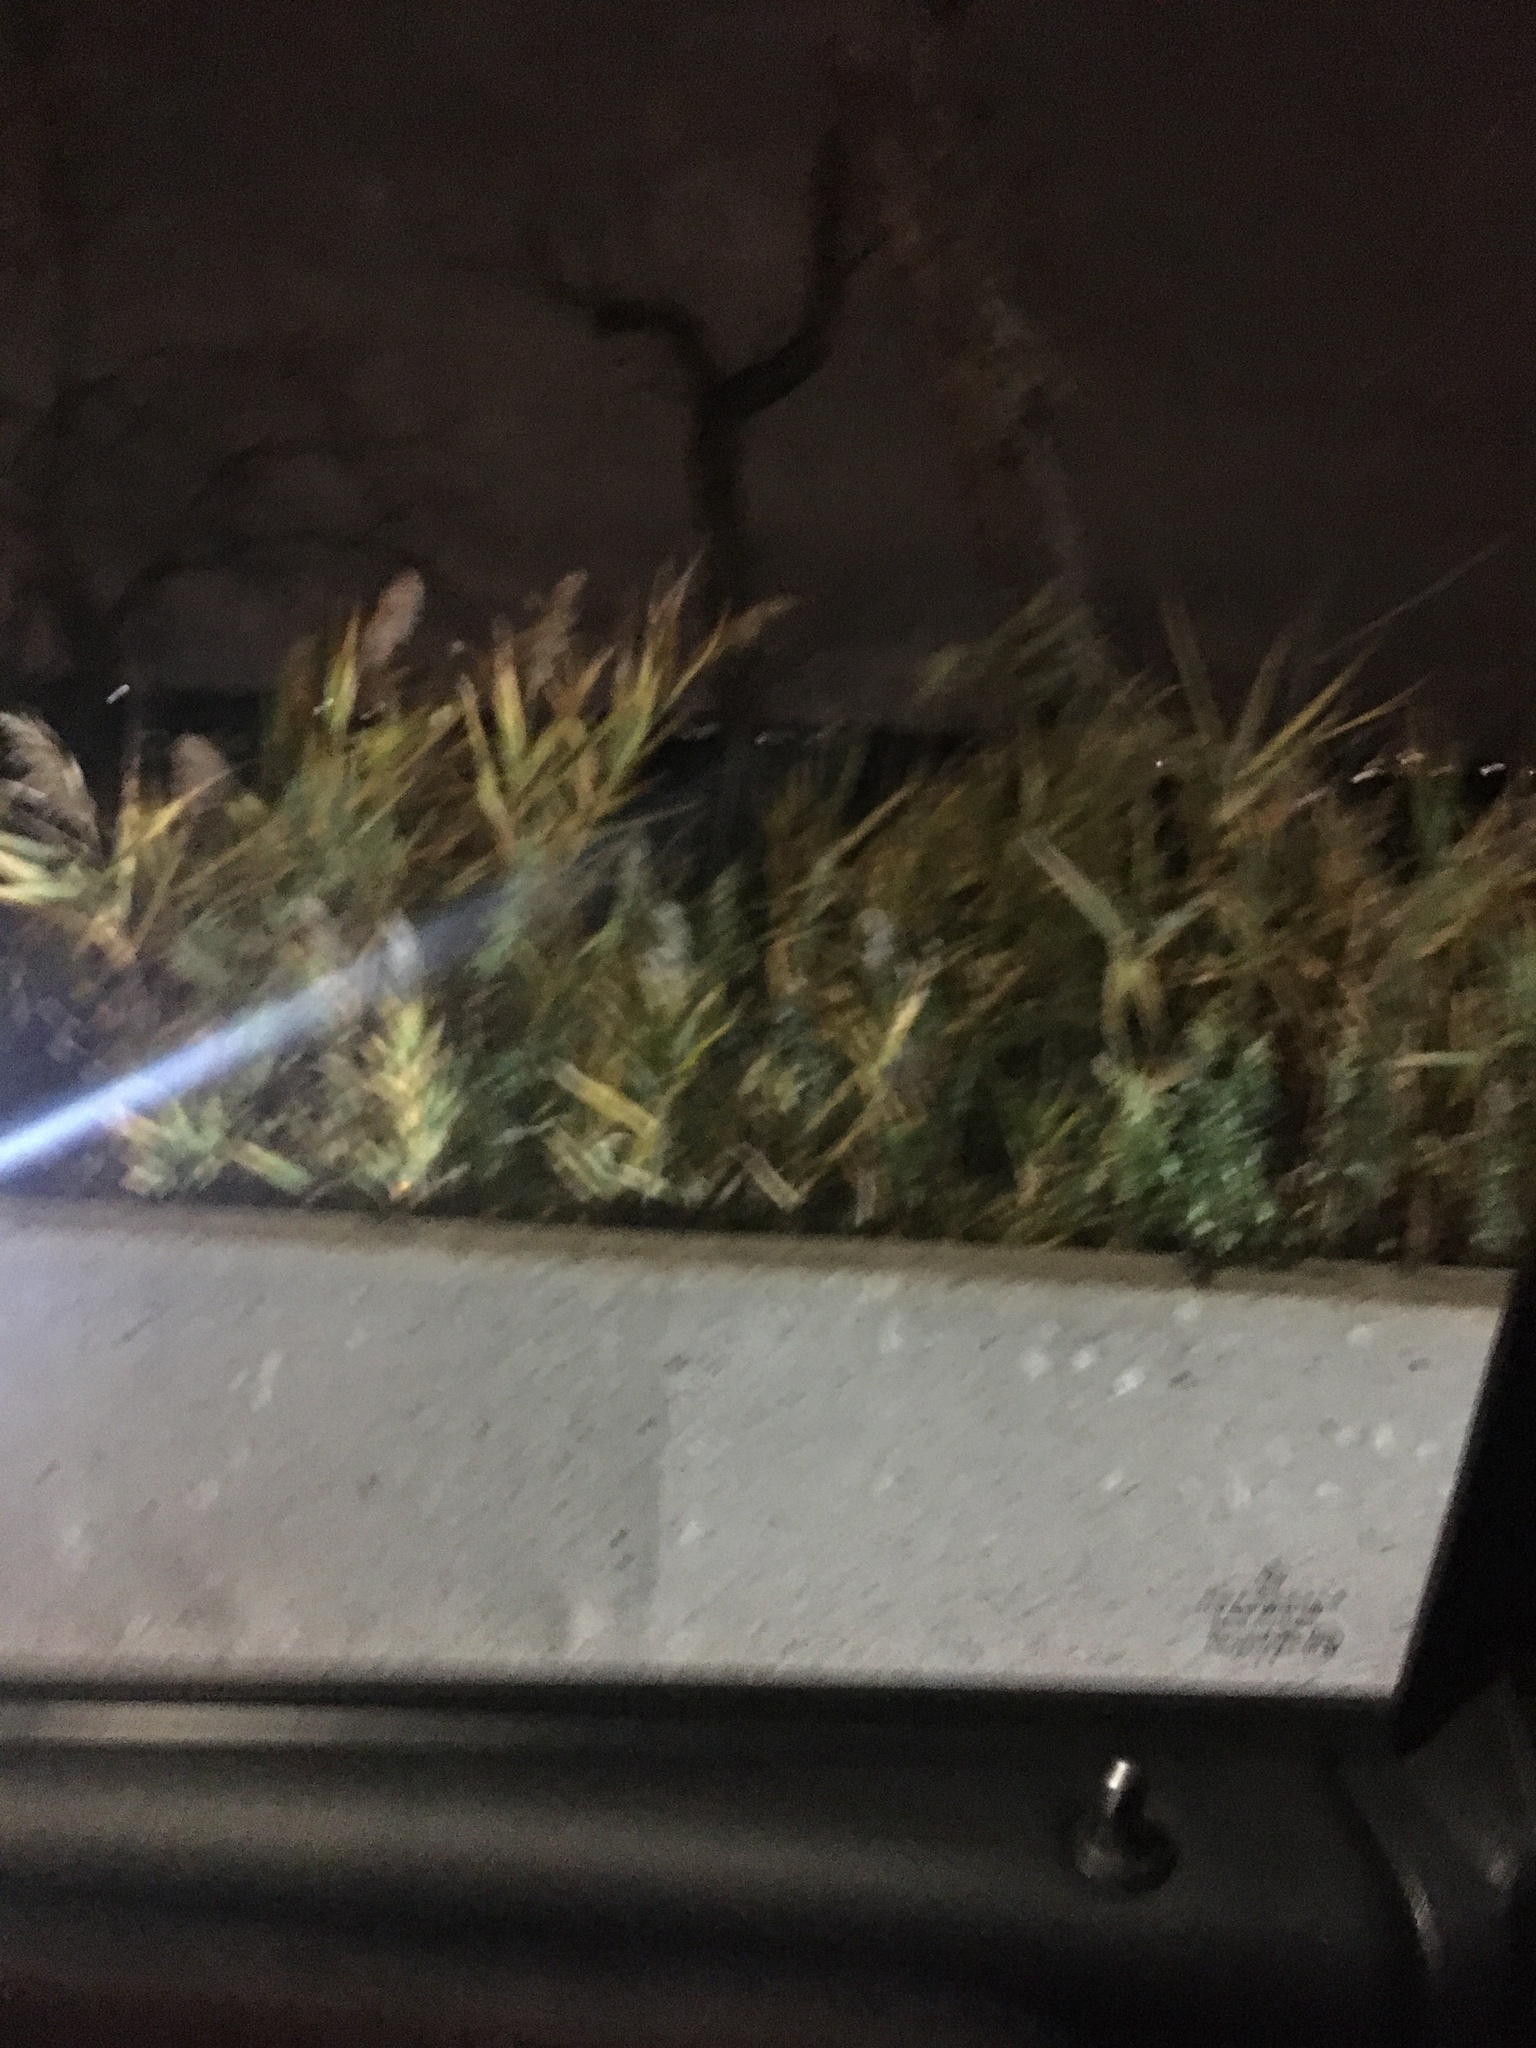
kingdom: Plantae
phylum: Tracheophyta
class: Liliopsida
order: Poales
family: Poaceae
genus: Phragmites
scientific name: Phragmites australis
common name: Common reed
